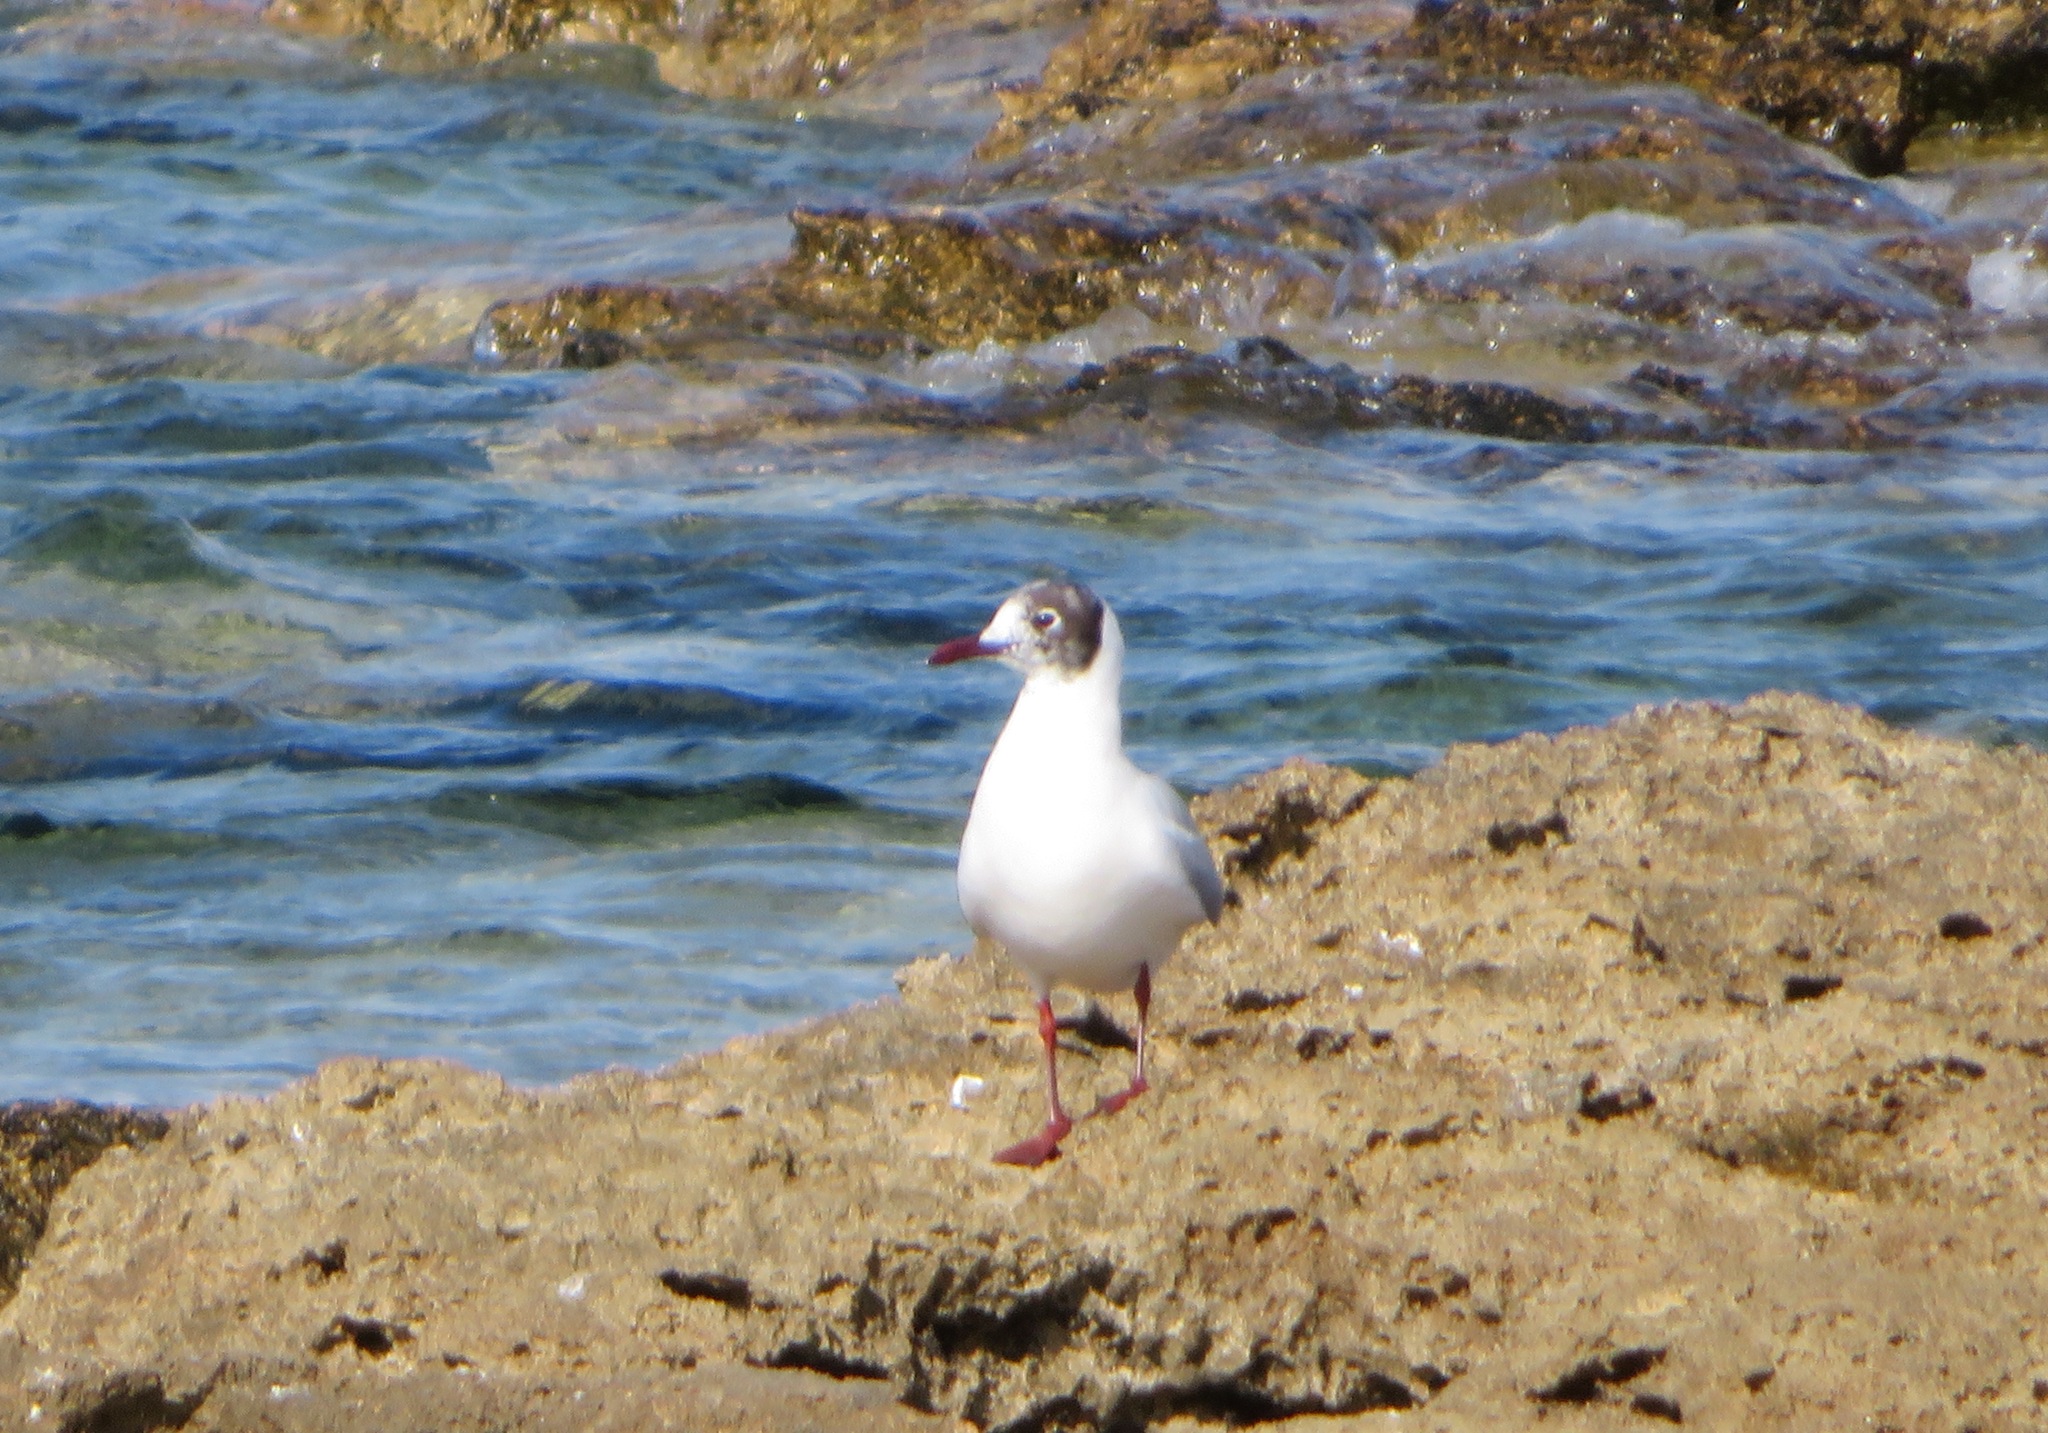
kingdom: Animalia
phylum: Chordata
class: Aves
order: Charadriiformes
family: Laridae
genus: Ichthyaetus
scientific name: Ichthyaetus melanocephalus
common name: Mediterranean gull
